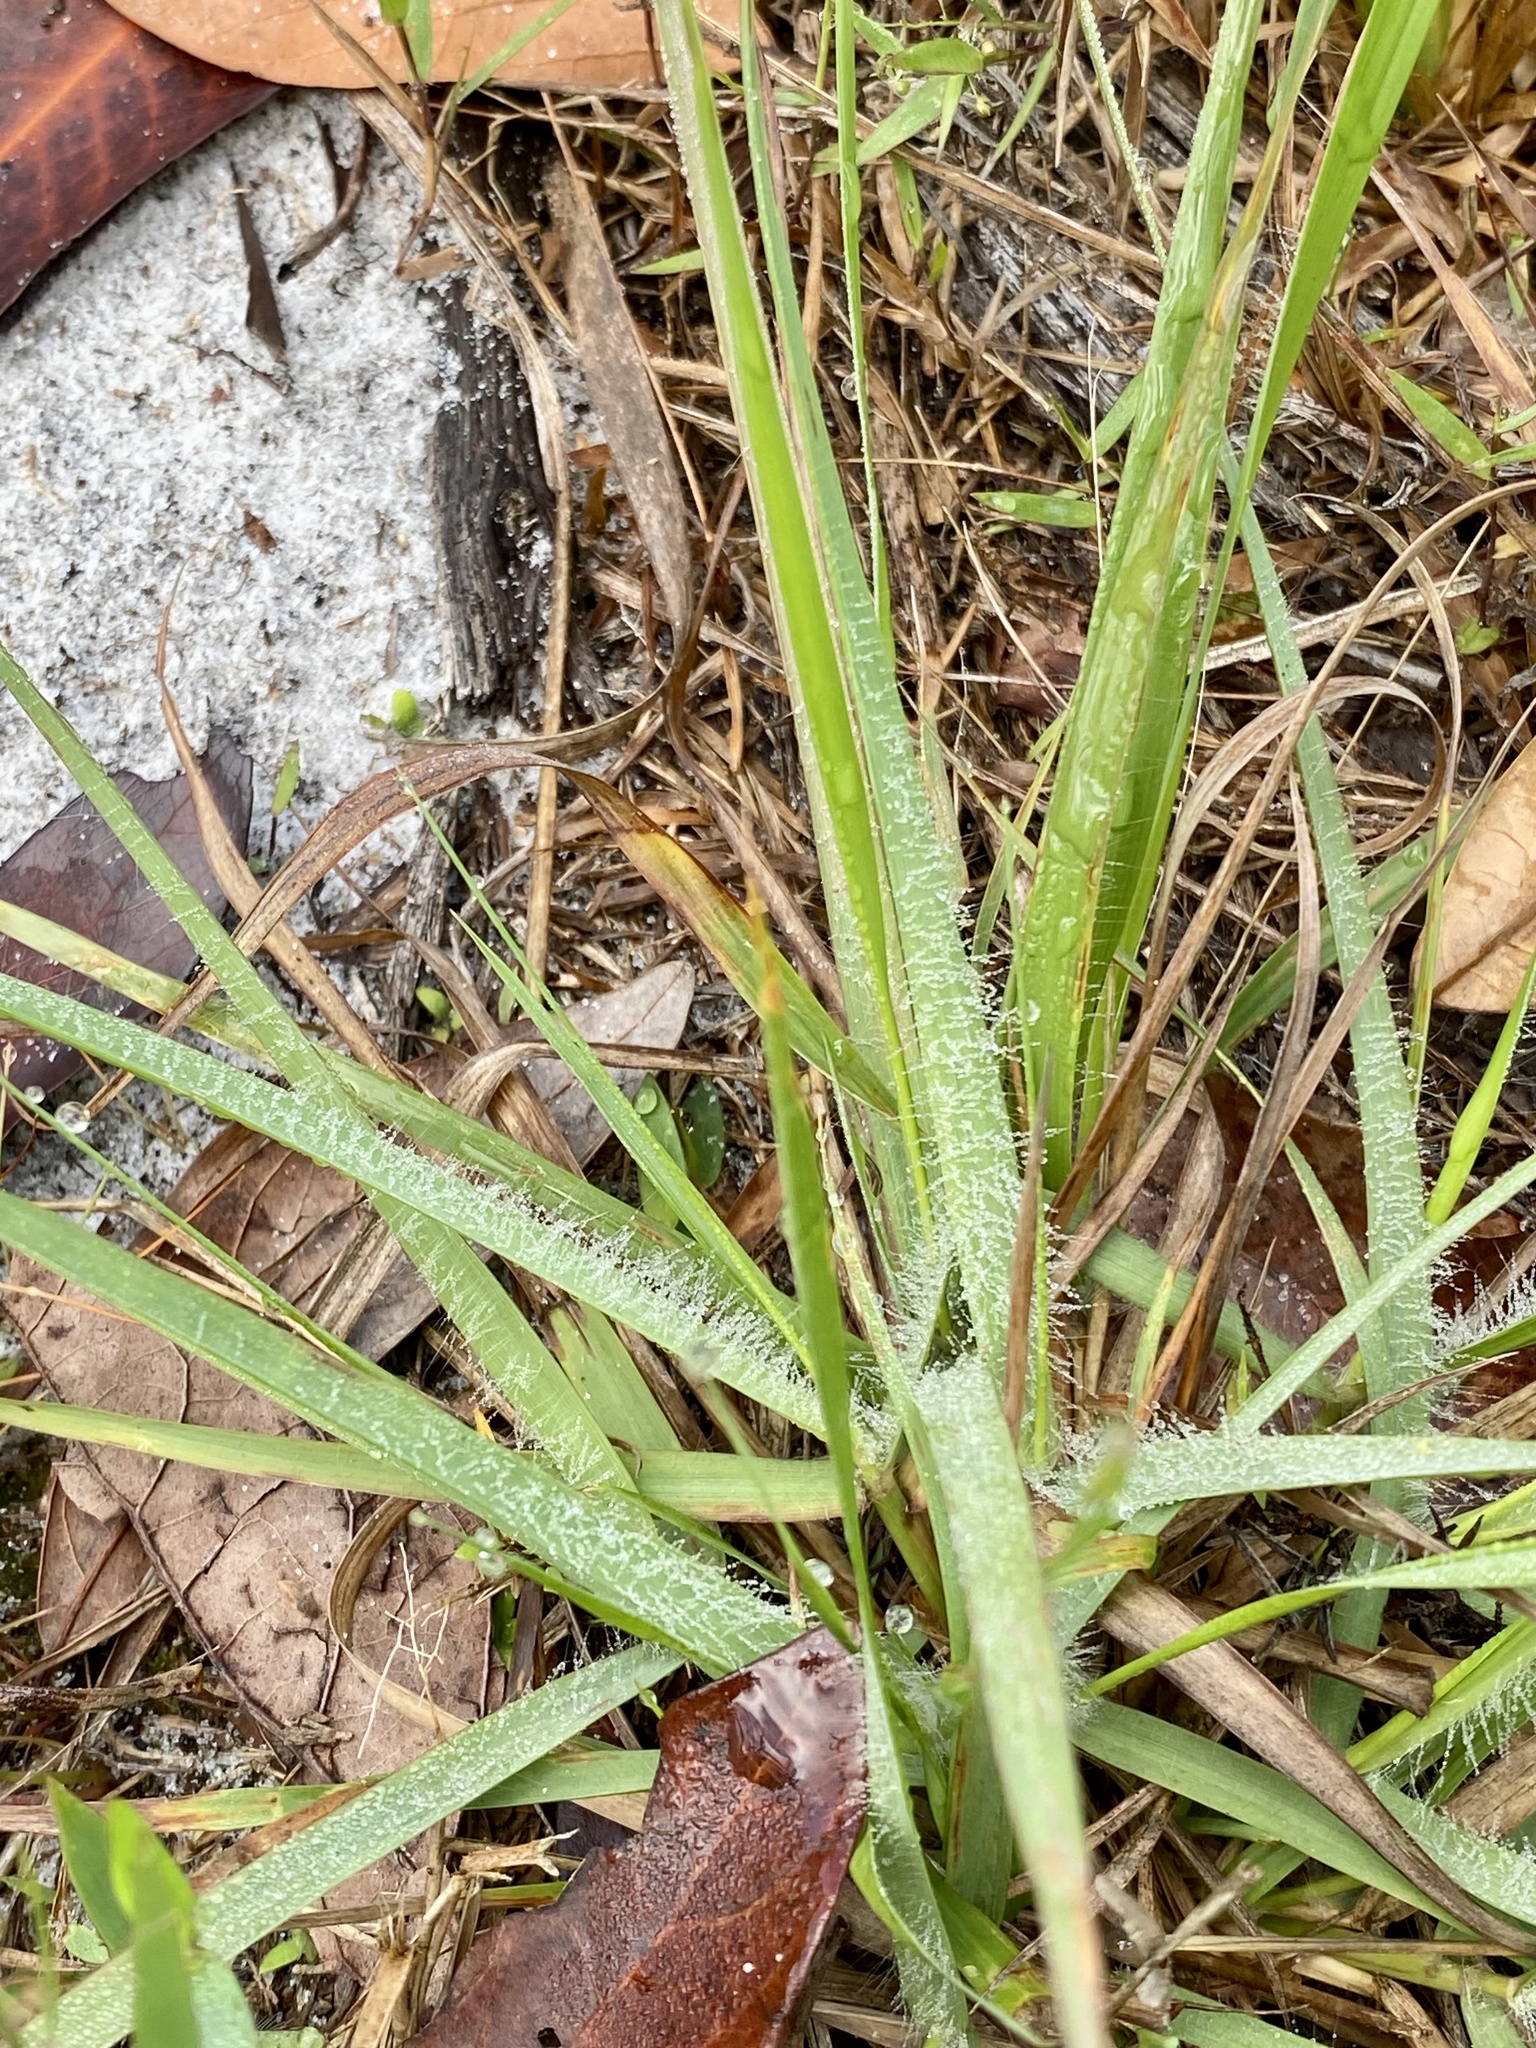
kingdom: Plantae
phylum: Tracheophyta
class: Liliopsida
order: Poales
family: Poaceae
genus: Andropogon
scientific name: Andropogon hirsutior
